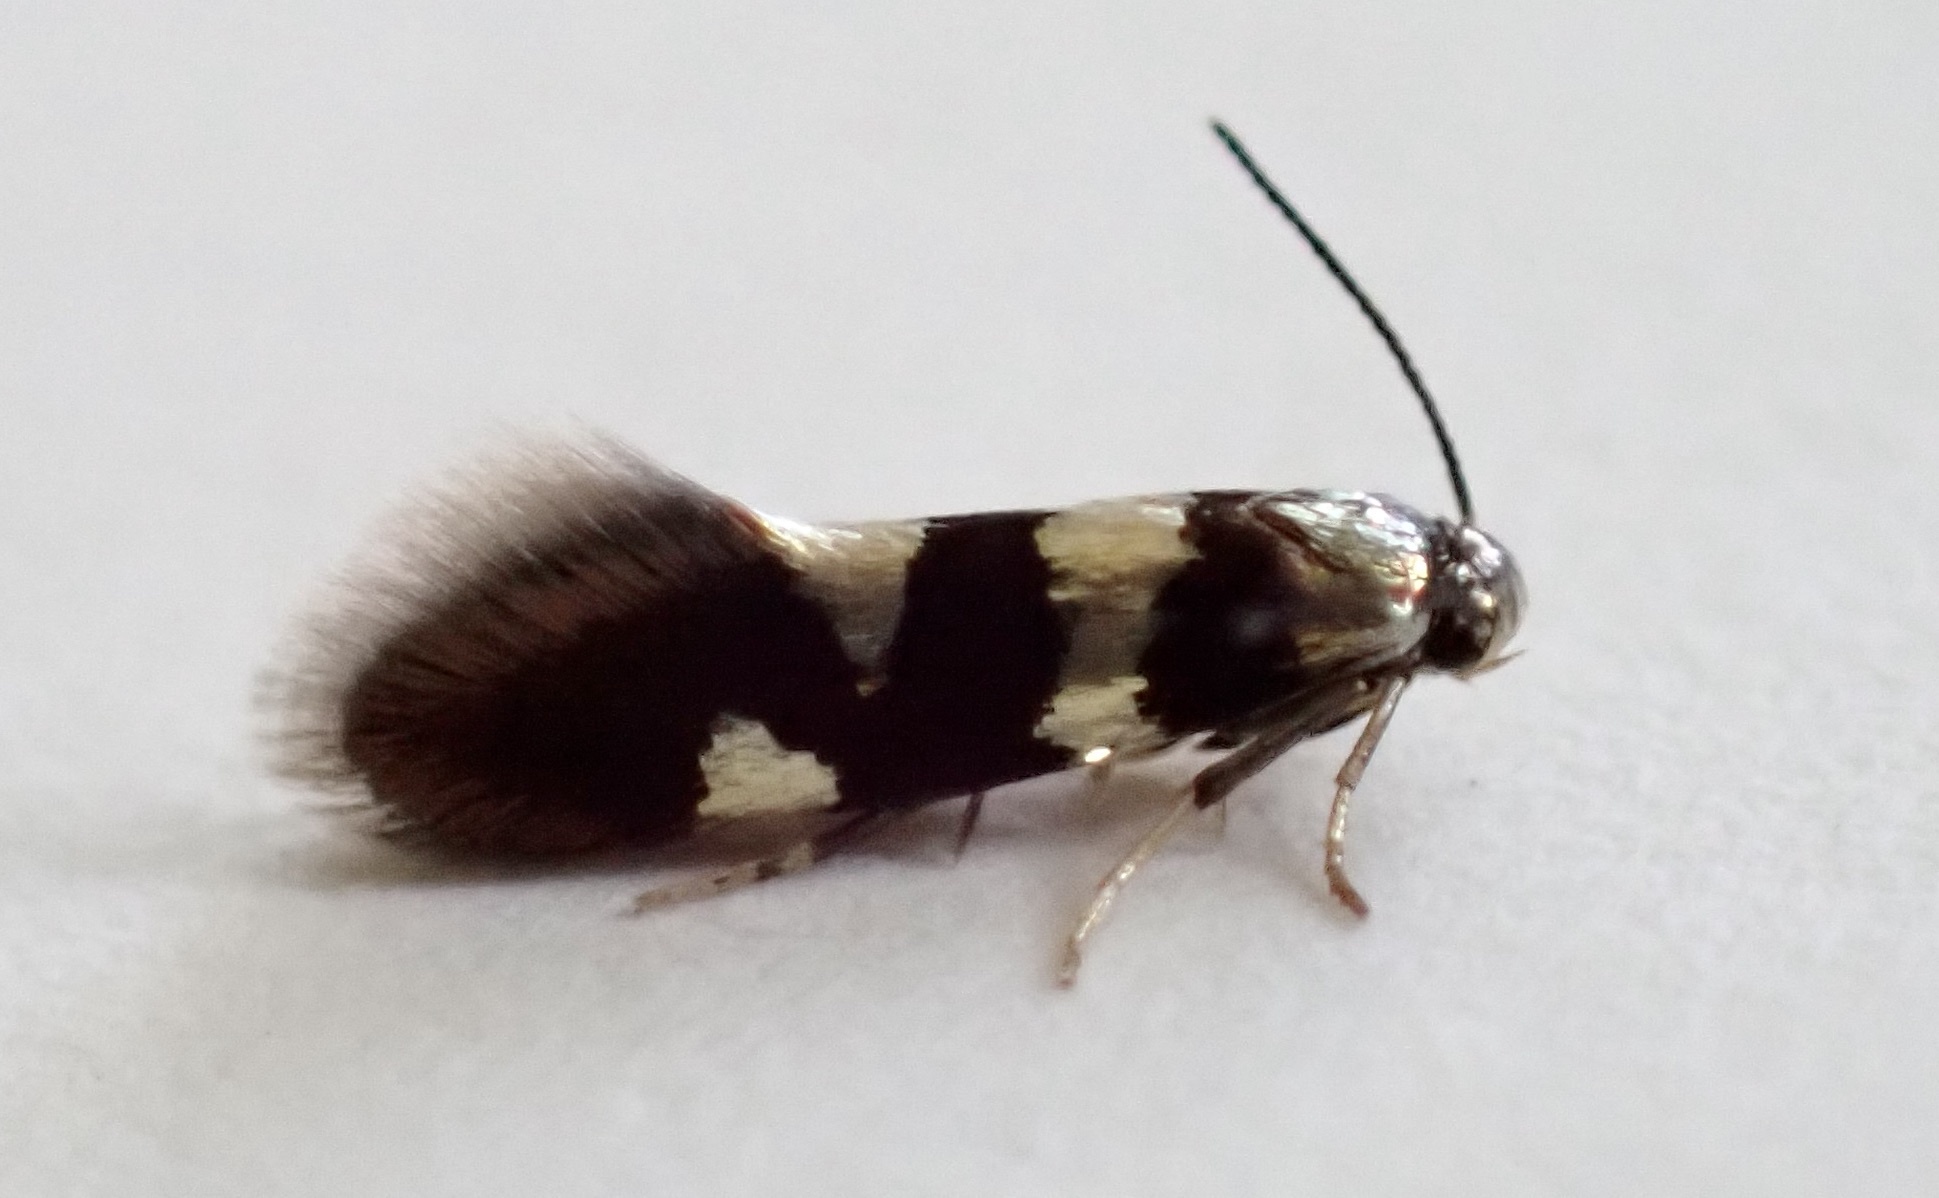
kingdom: Animalia
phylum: Arthropoda
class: Insecta
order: Lepidoptera
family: Heliozelidae
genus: Antispila
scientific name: Antispila nyssaefoliella
